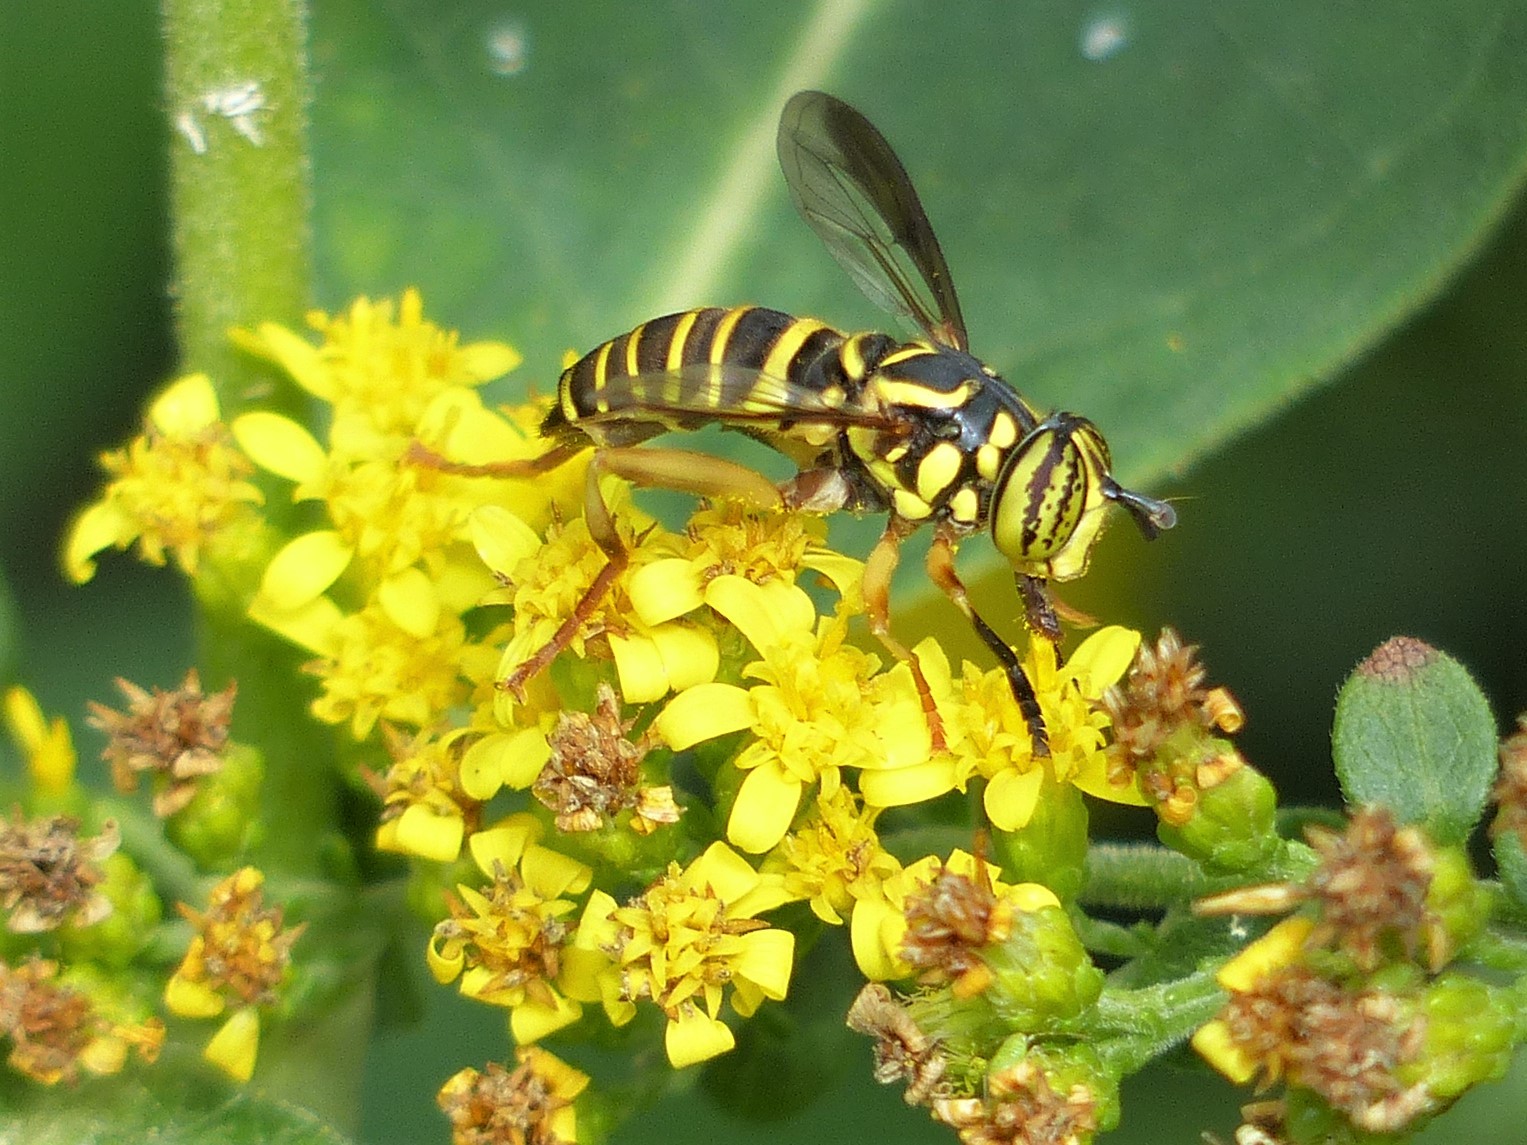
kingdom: Animalia
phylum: Arthropoda
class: Insecta
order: Diptera
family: Syrphidae
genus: Spilomyia
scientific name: Spilomyia longicornis
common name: Eastern hornet fly
